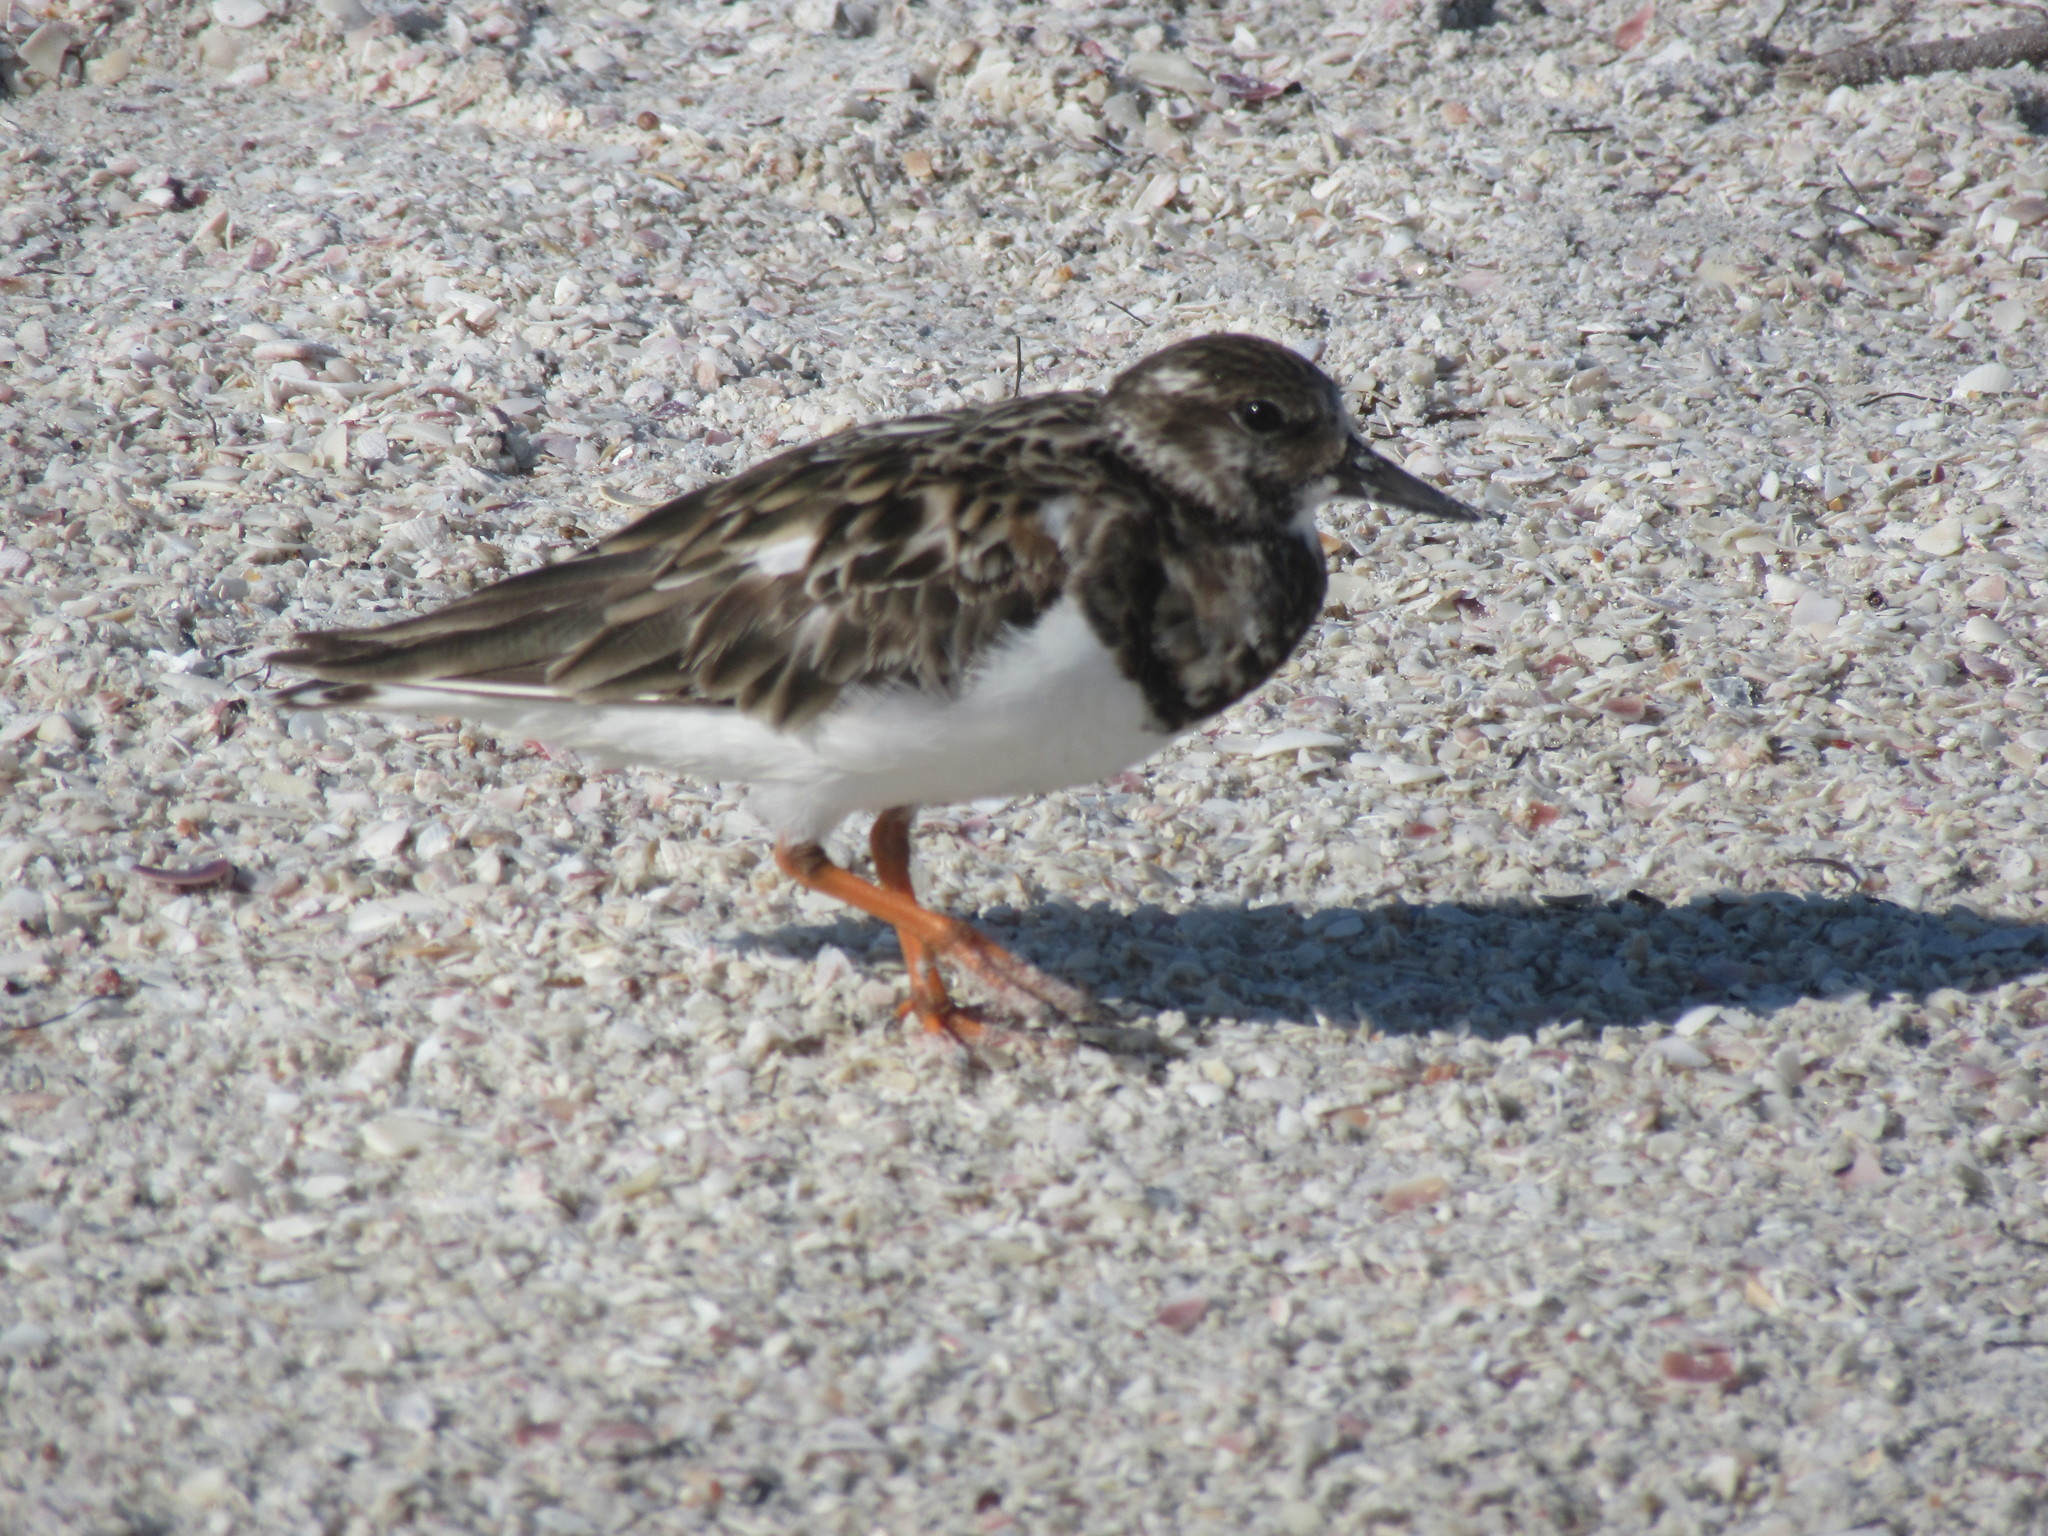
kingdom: Animalia
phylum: Chordata
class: Aves
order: Charadriiformes
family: Scolopacidae
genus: Arenaria
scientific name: Arenaria interpres
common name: Ruddy turnstone
